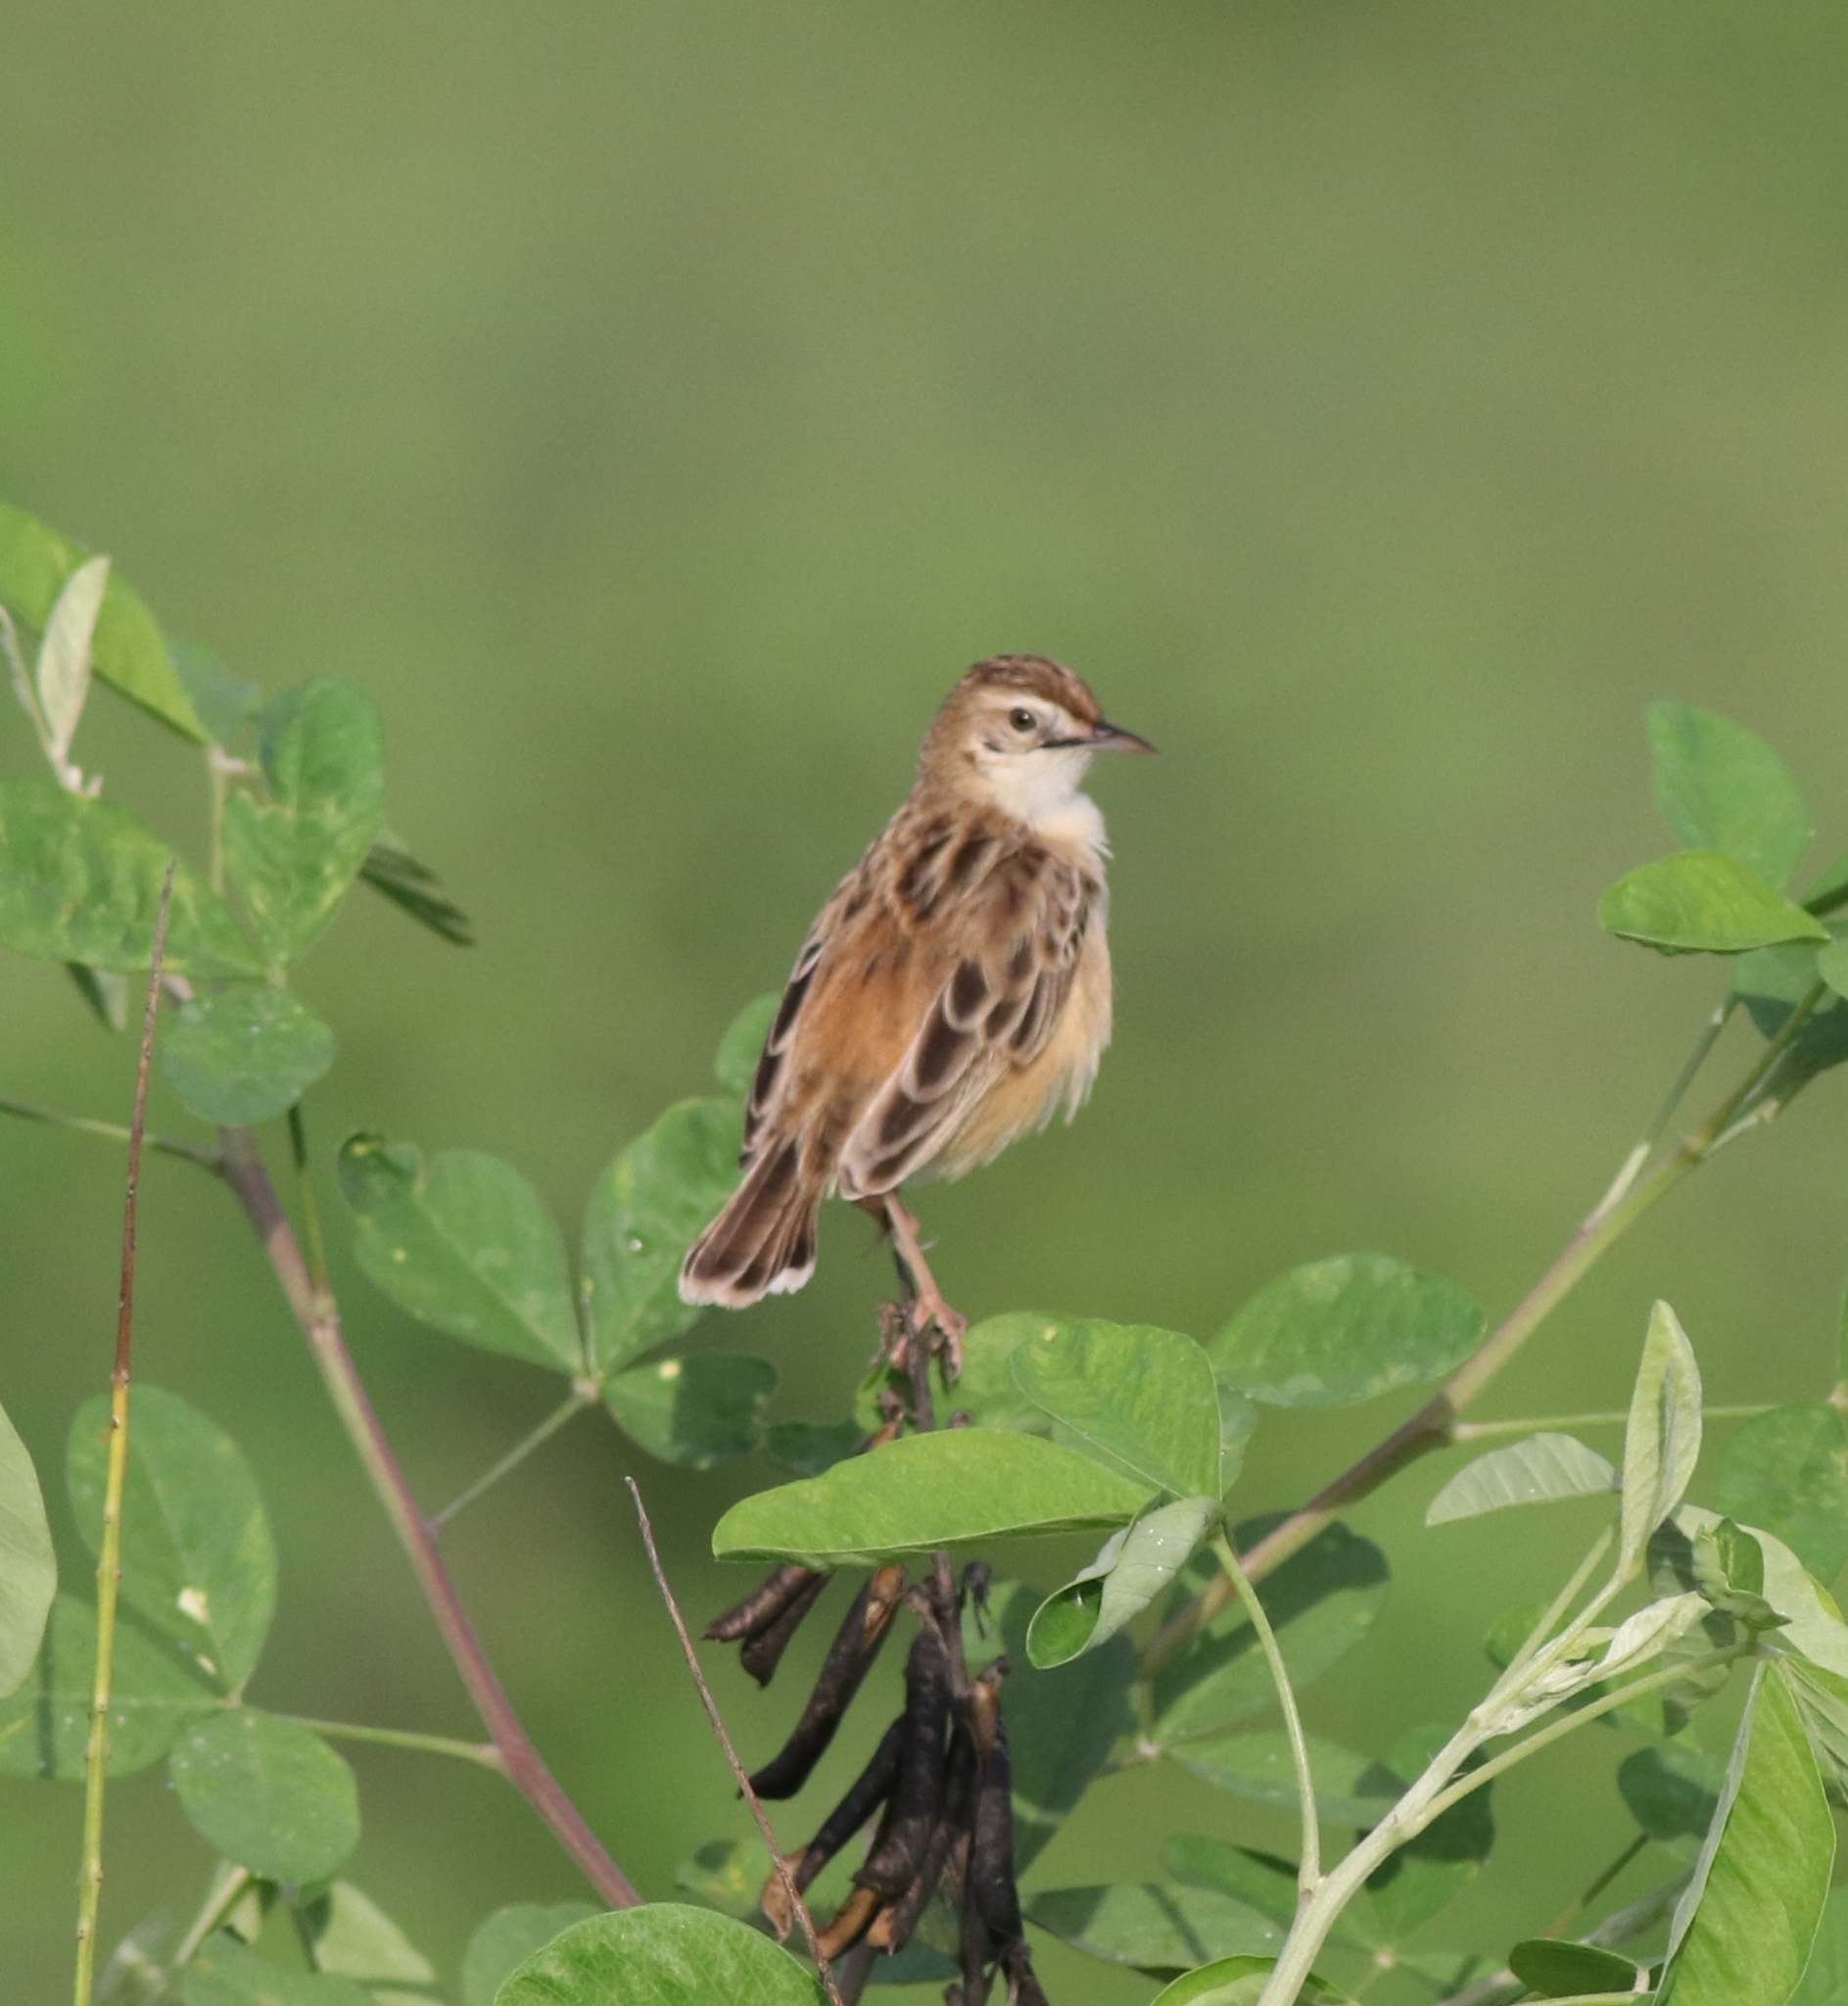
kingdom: Animalia
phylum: Chordata
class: Aves
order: Passeriformes
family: Cisticolidae
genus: Cisticola
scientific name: Cisticola juncidis
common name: Zitting cisticola
